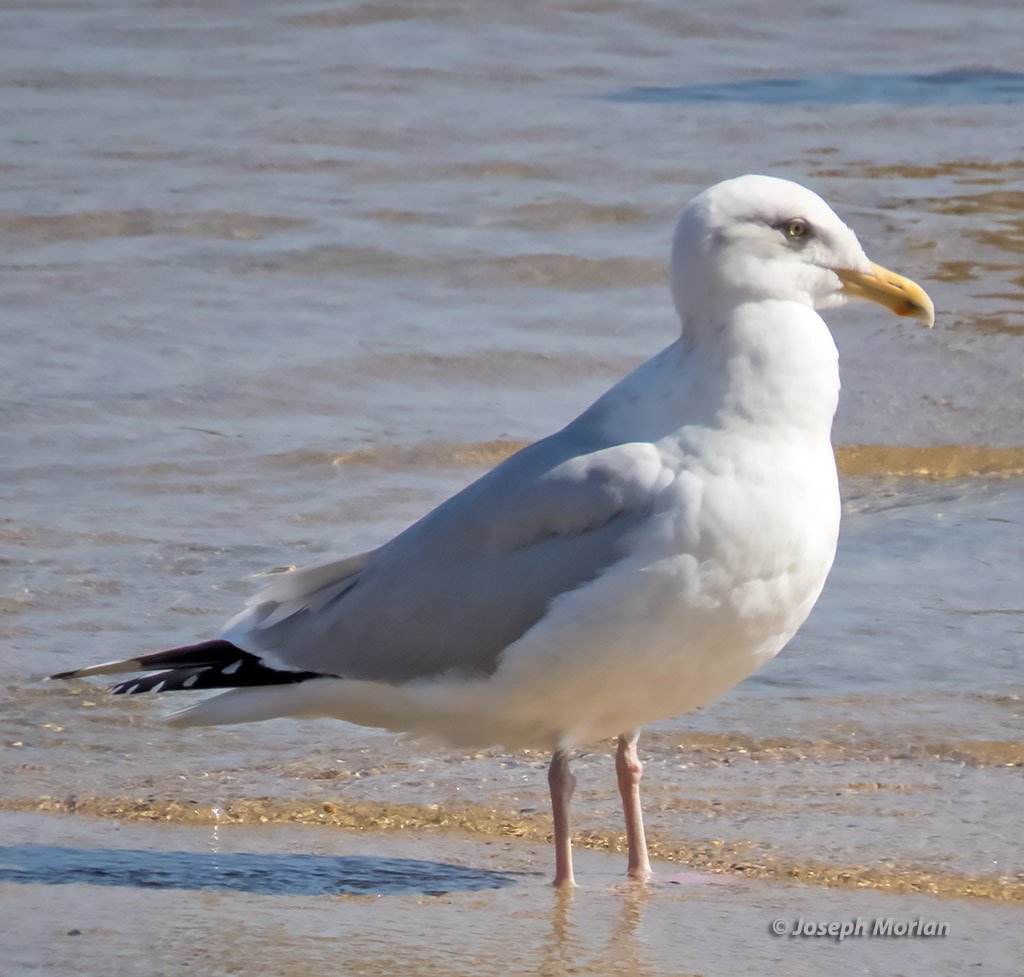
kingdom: Animalia
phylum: Chordata
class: Aves
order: Charadriiformes
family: Laridae
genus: Larus
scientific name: Larus argentatus
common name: Herring gull
